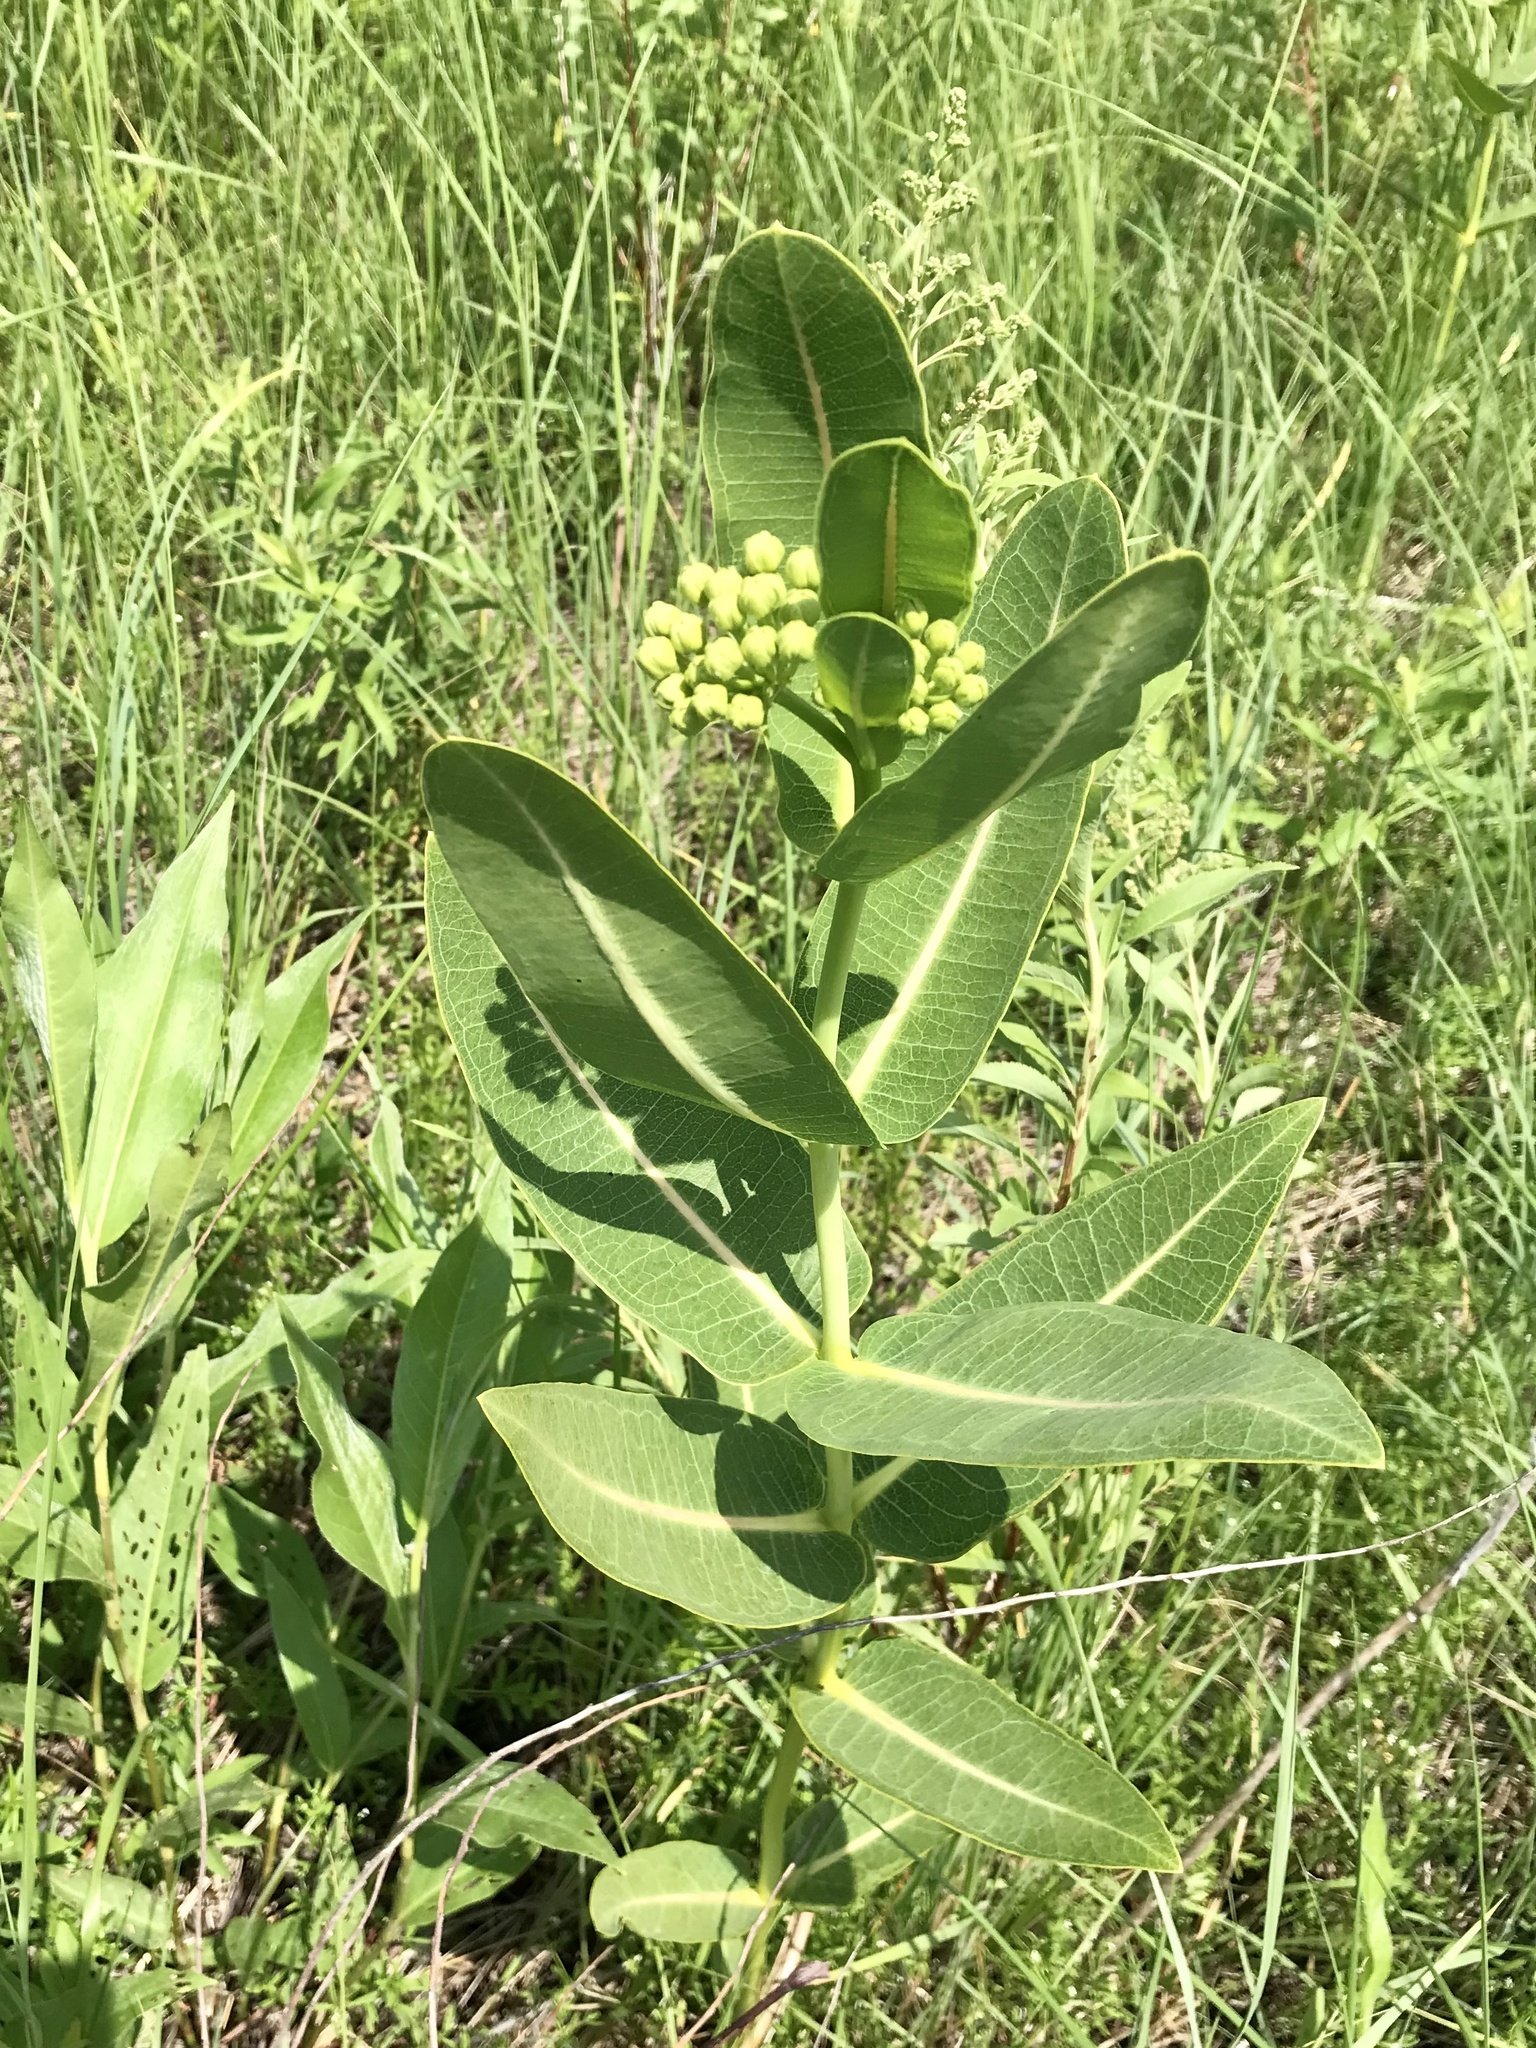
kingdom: Plantae
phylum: Tracheophyta
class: Magnoliopsida
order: Gentianales
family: Apocynaceae
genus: Asclepias
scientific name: Asclepias sullivantii
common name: Prairie milkweed
